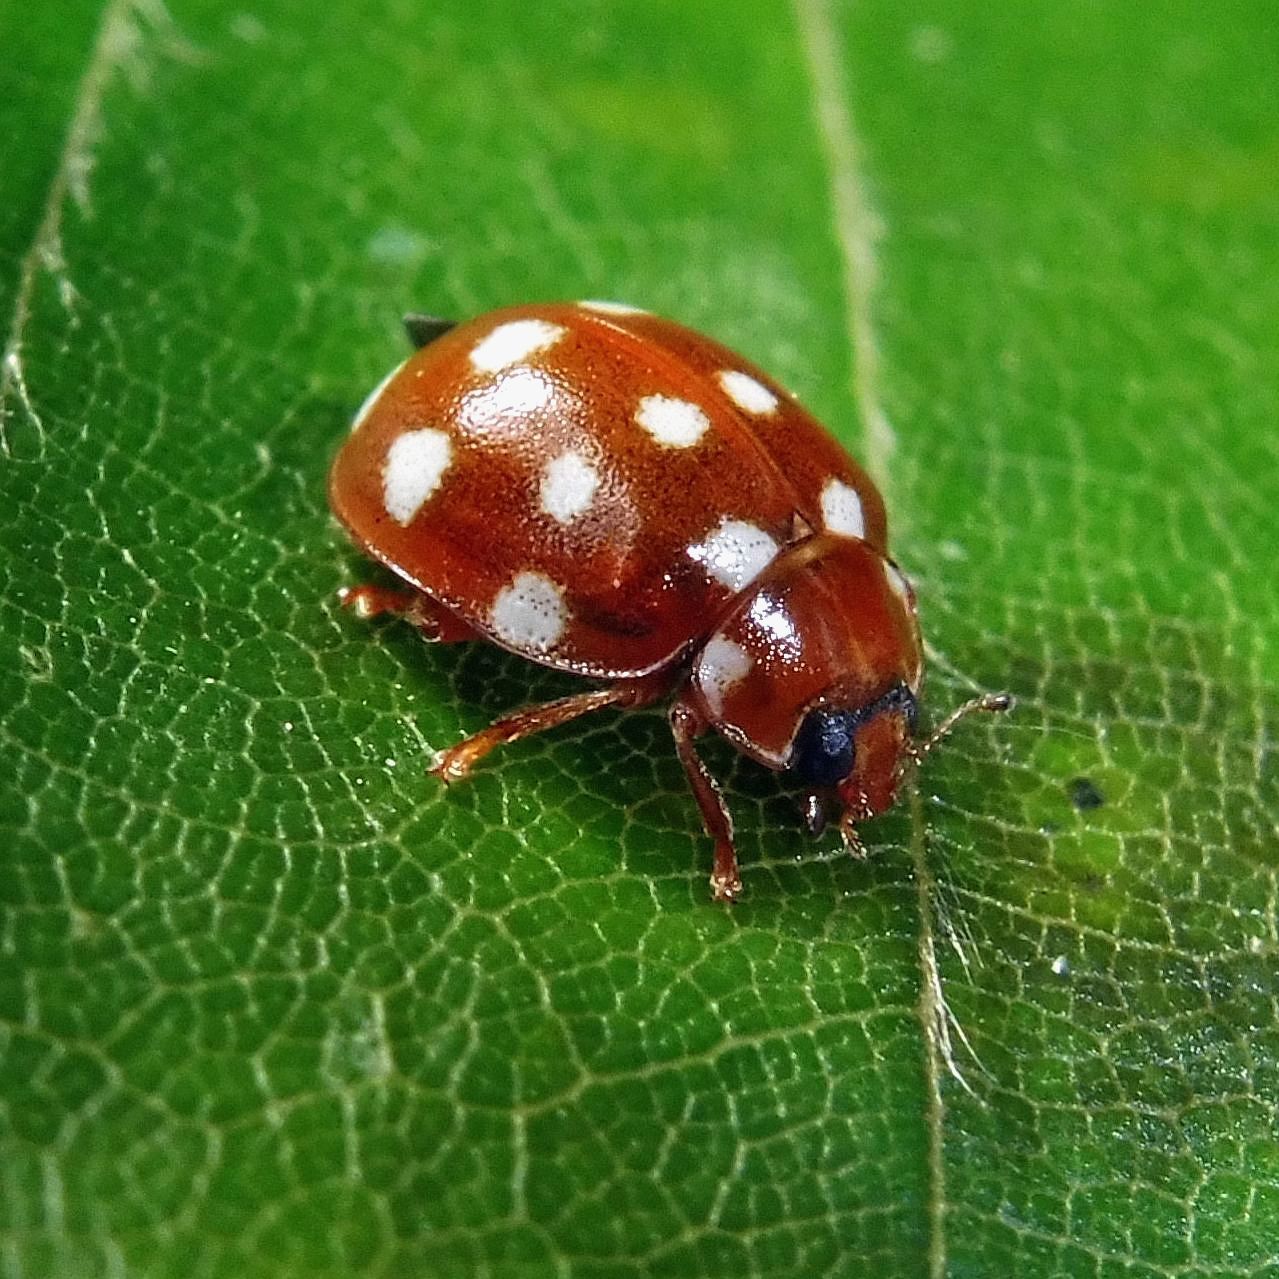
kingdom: Animalia
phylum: Arthropoda
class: Insecta
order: Coleoptera
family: Coccinellidae
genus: Calvia
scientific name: Calvia quatuordecimguttata
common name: Cream-spot ladybird
